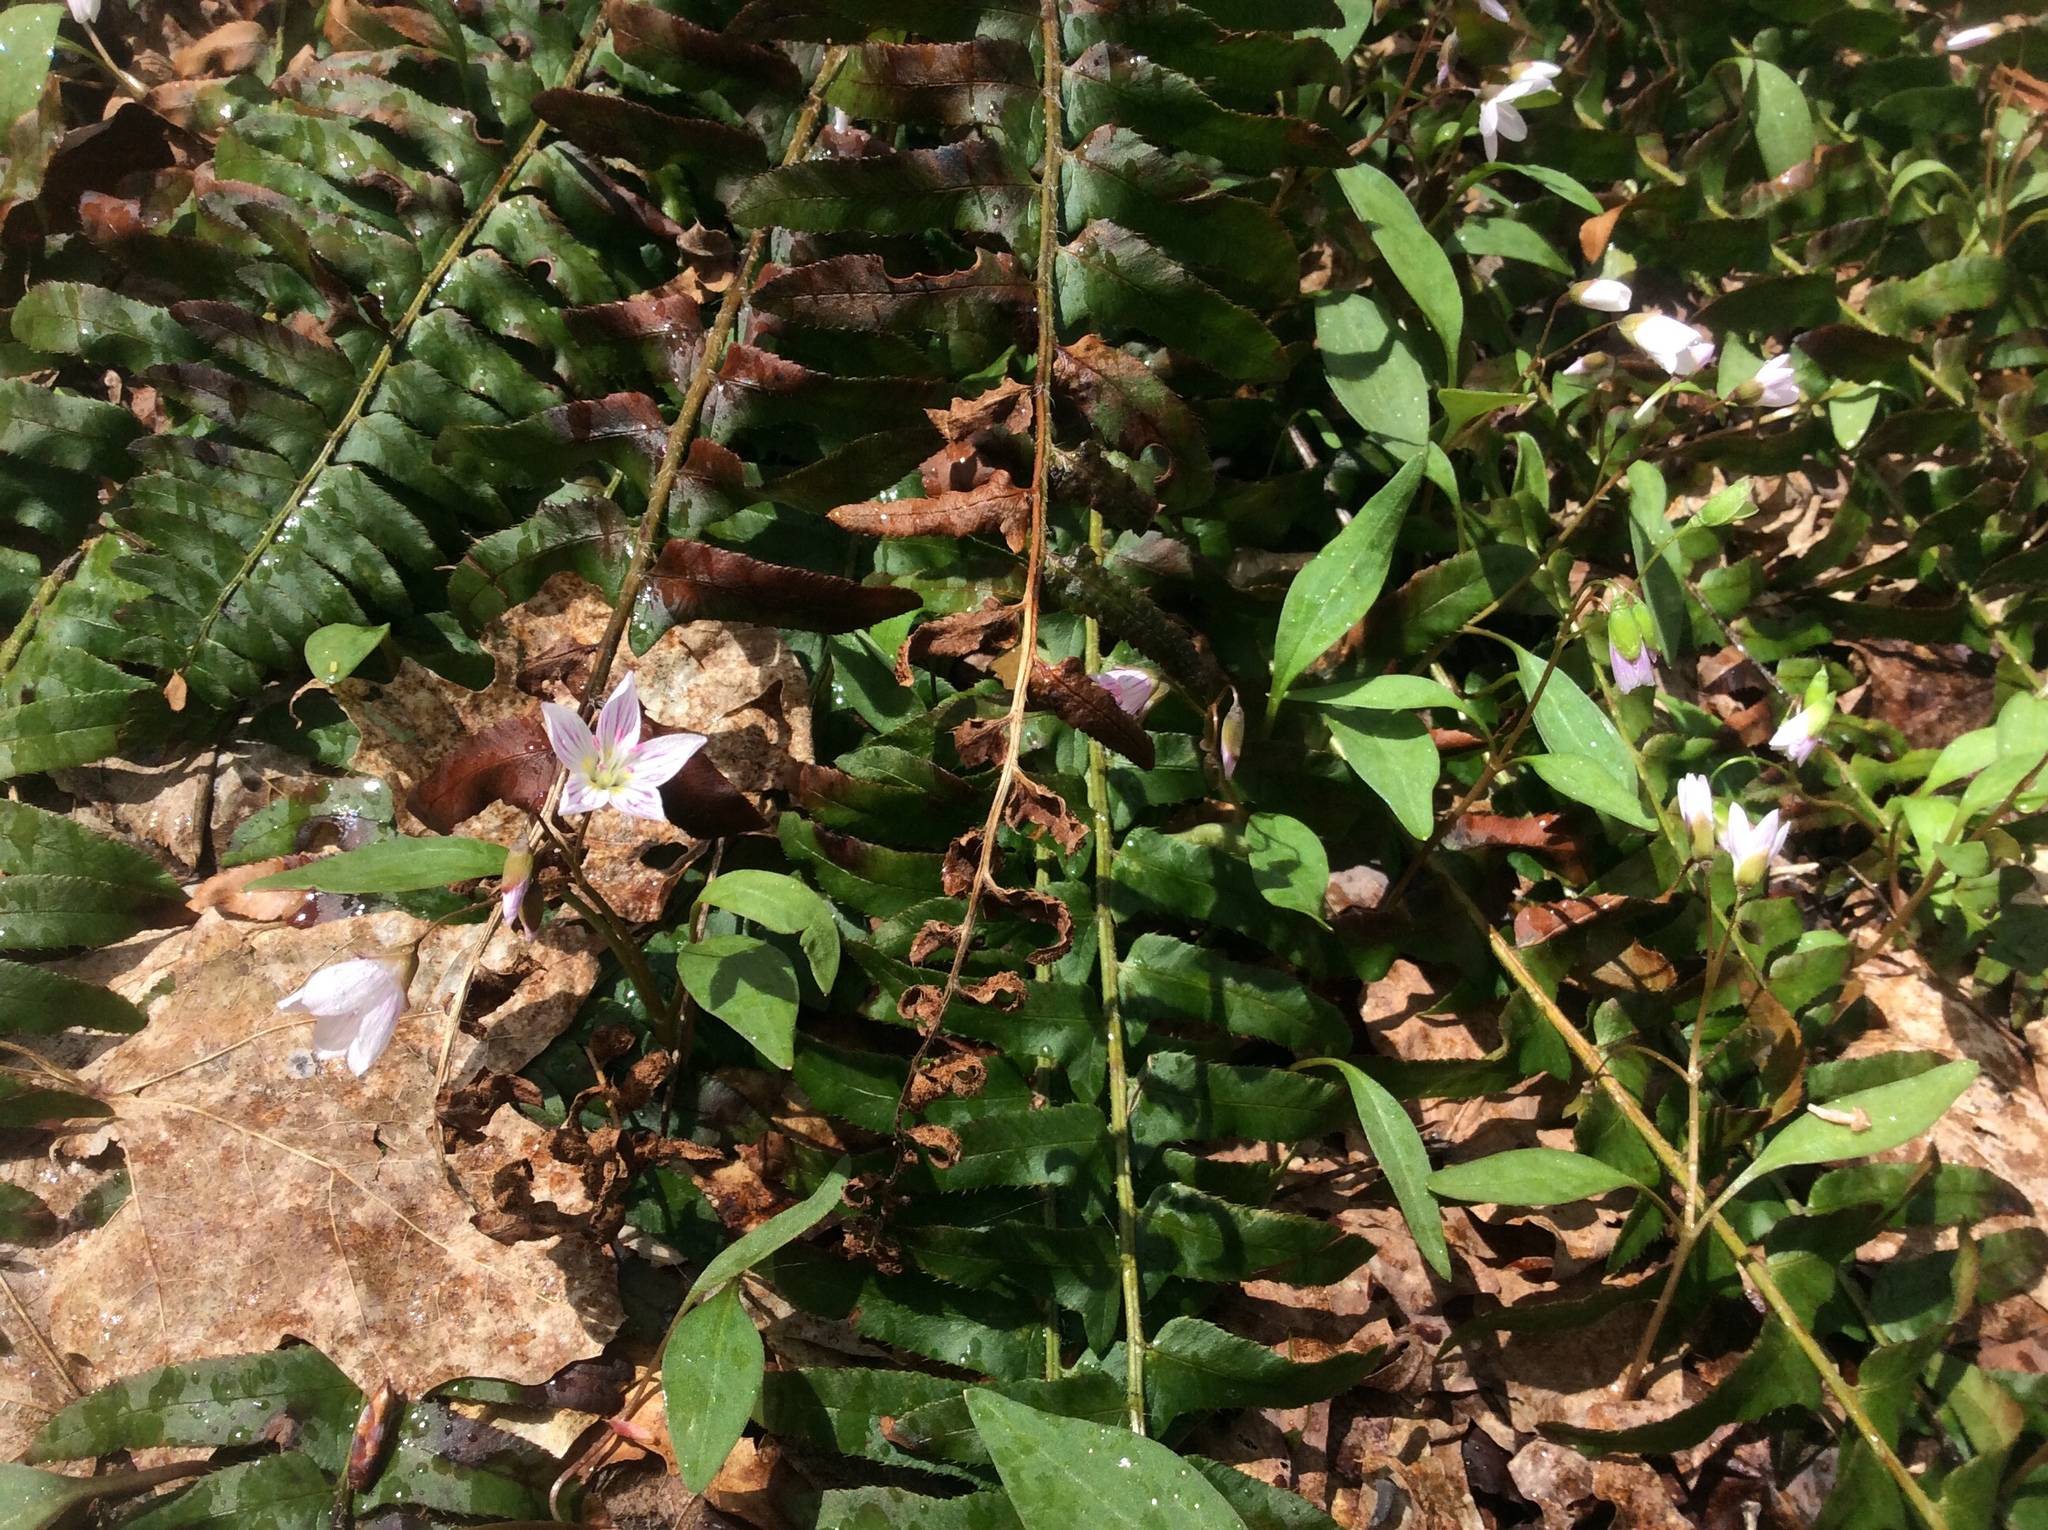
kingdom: Plantae
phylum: Tracheophyta
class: Magnoliopsida
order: Caryophyllales
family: Montiaceae
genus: Claytonia
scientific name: Claytonia caroliniana
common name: Carolina spring beauty
